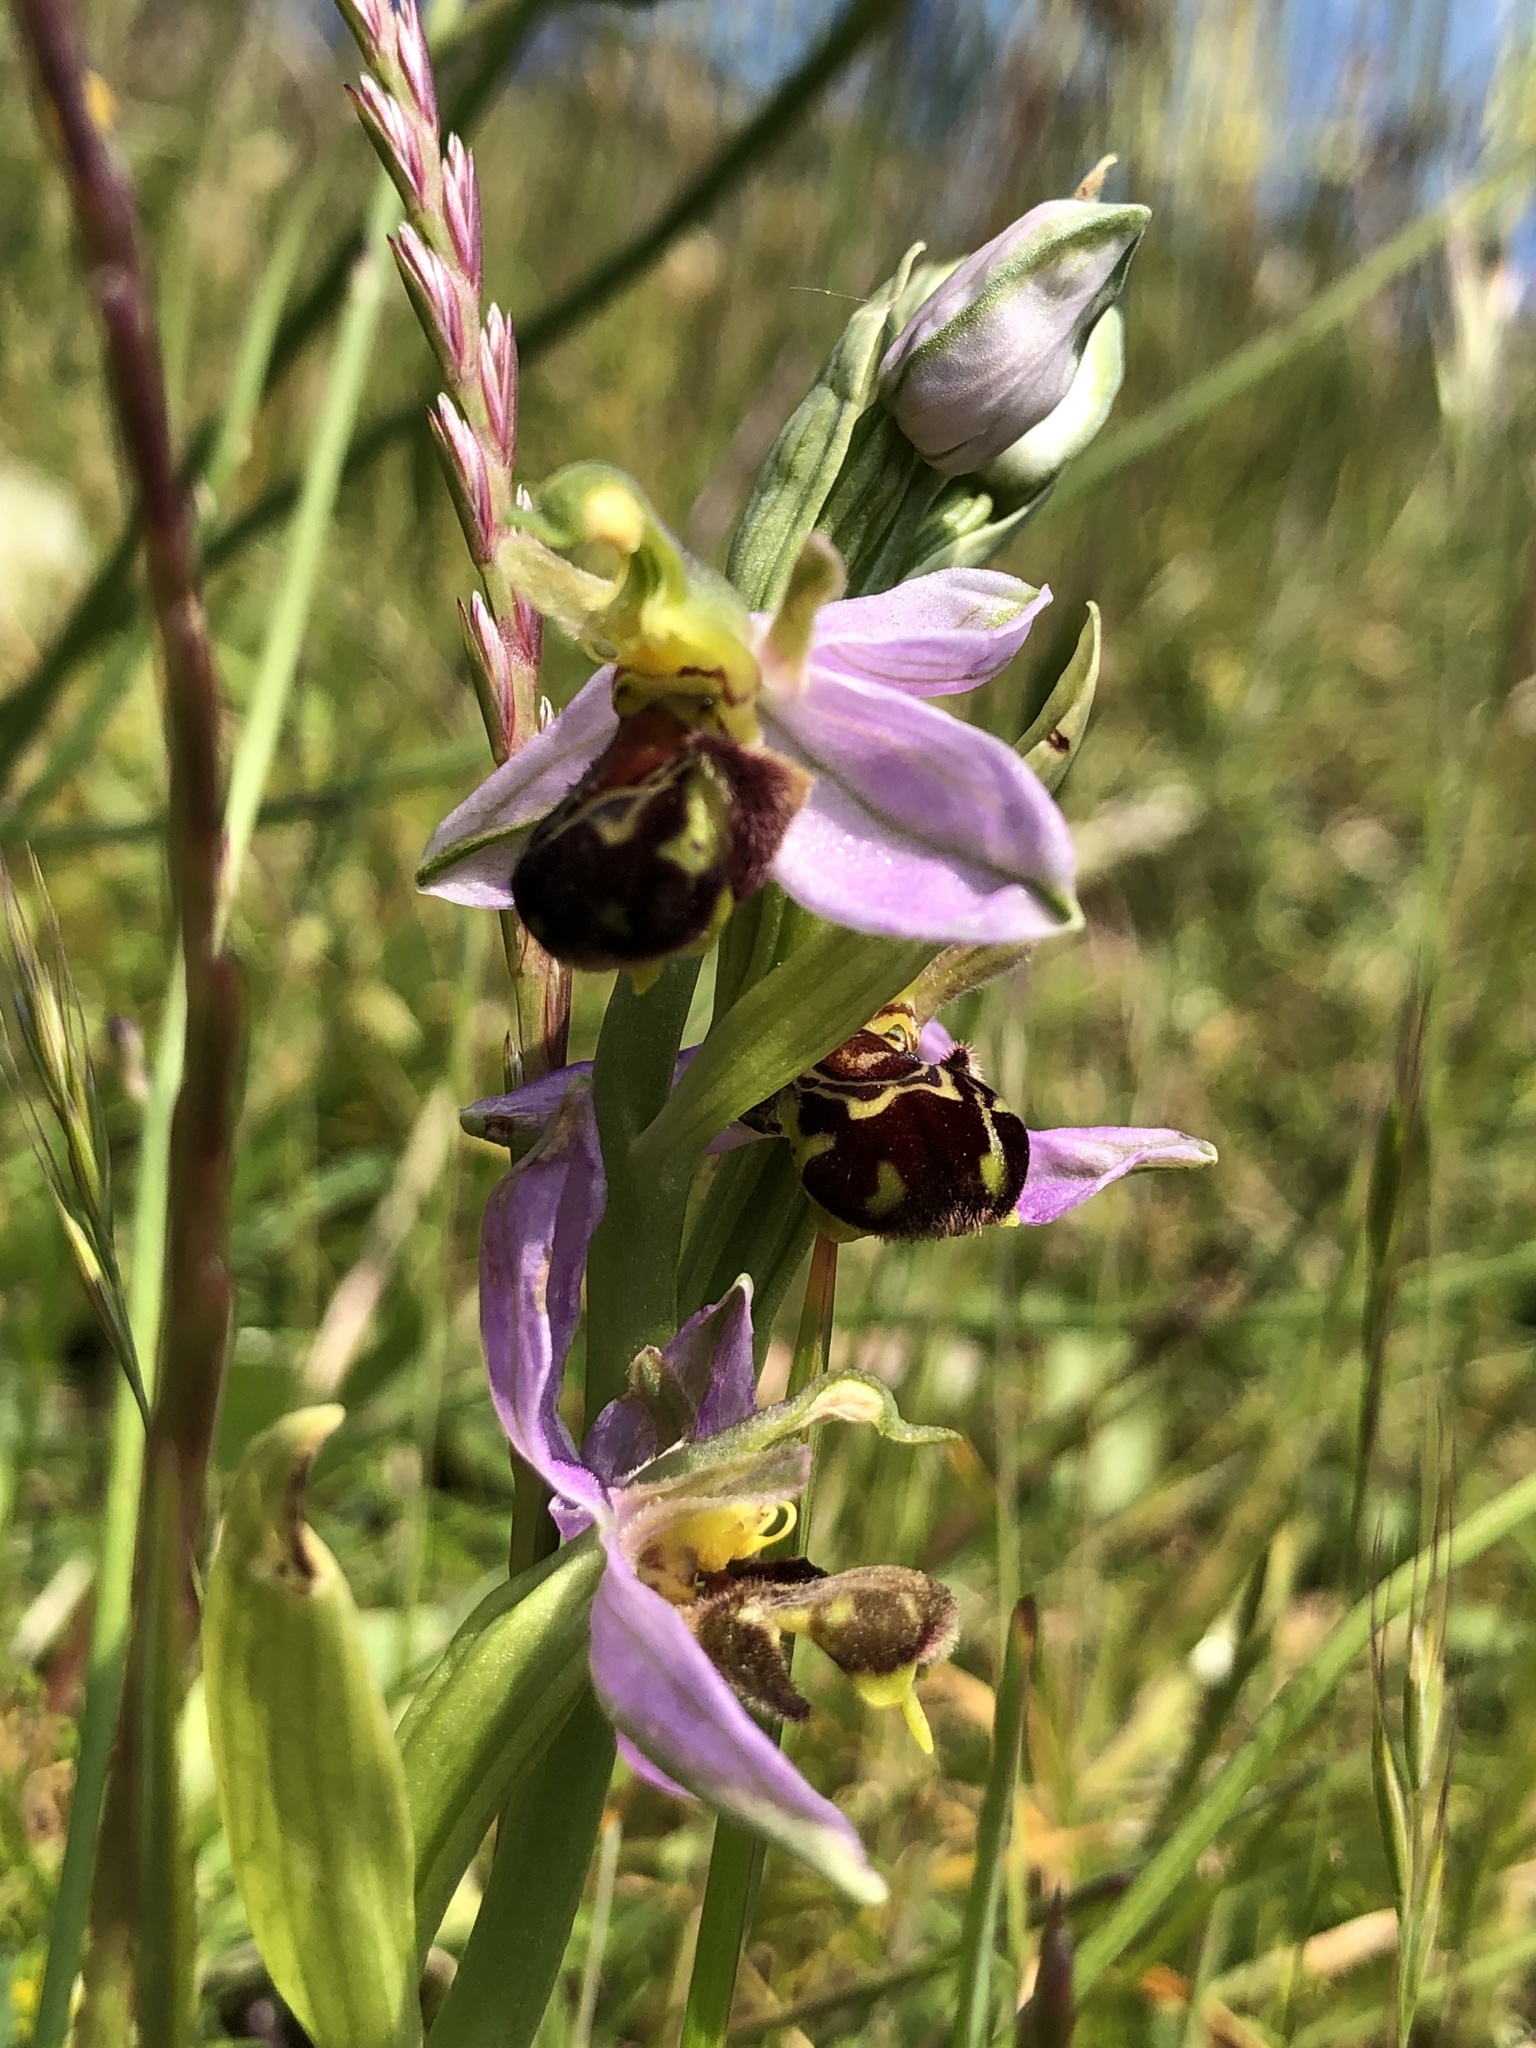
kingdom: Plantae
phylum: Tracheophyta
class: Liliopsida
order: Asparagales
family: Orchidaceae
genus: Ophrys
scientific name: Ophrys apifera
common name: Bee orchid
